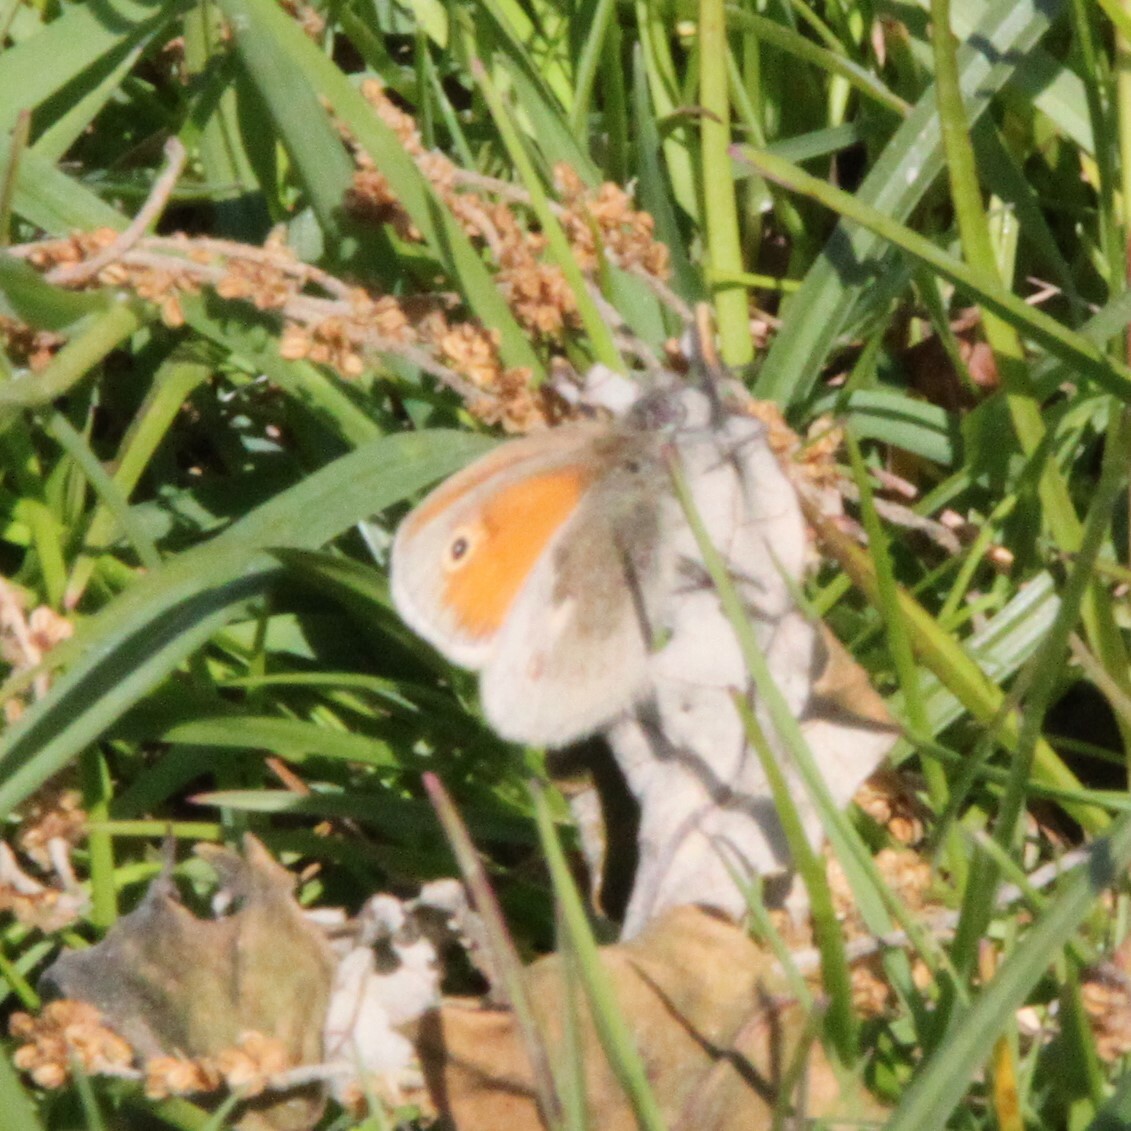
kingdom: Animalia
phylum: Arthropoda
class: Insecta
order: Lepidoptera
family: Nymphalidae
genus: Coenonympha
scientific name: Coenonympha pamphilus
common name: Small heath
